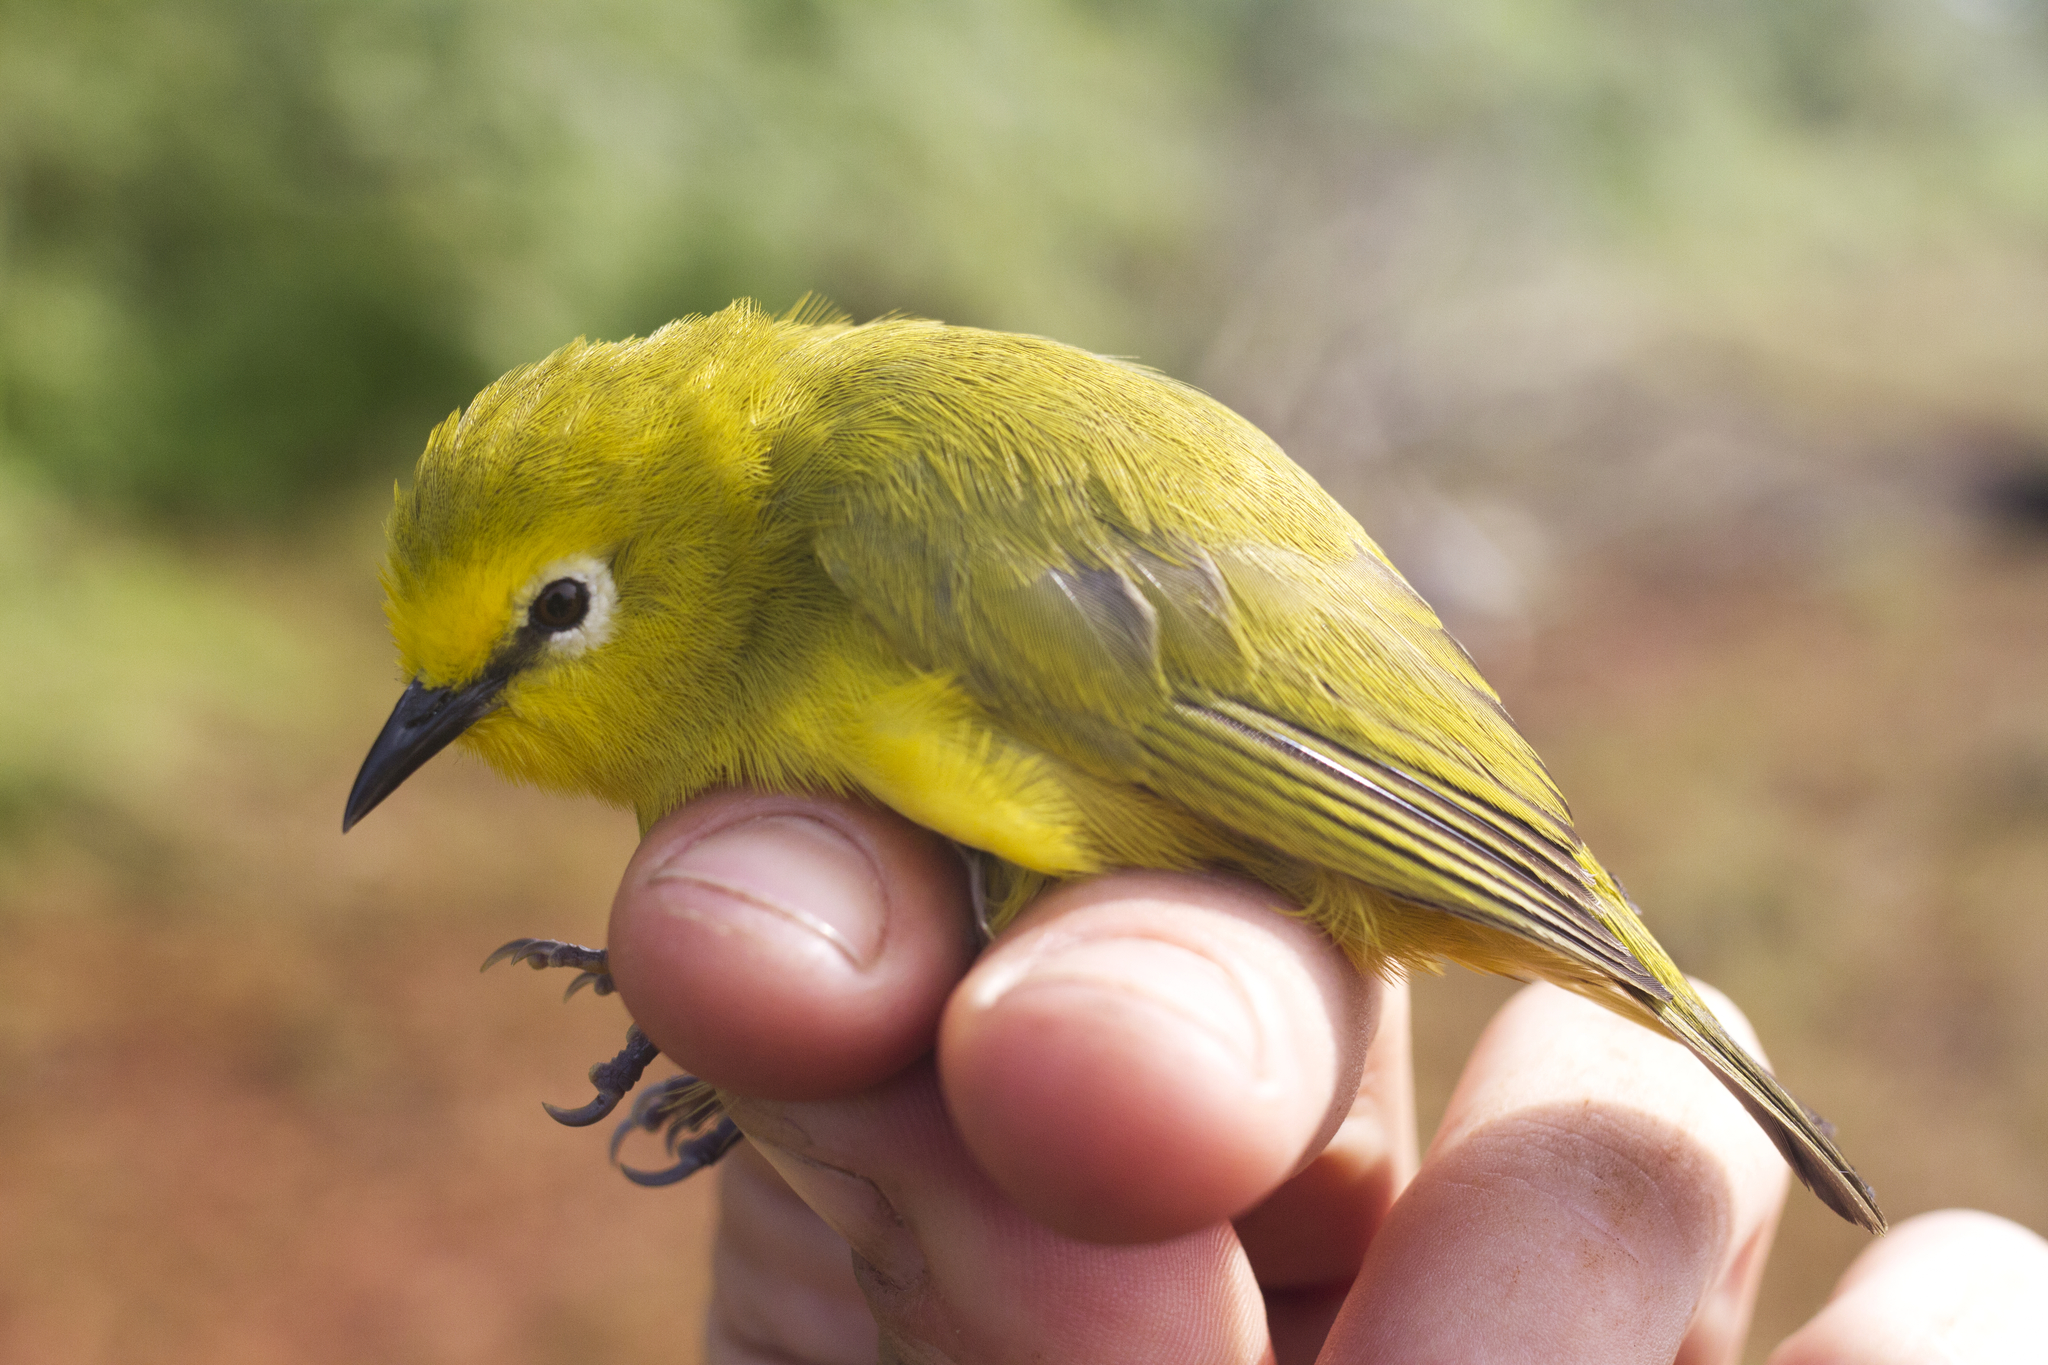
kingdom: Animalia
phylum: Chordata
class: Aves
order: Passeriformes
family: Zosteropidae
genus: Zosterops
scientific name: Zosterops stenocricotus
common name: Forest white-eye
